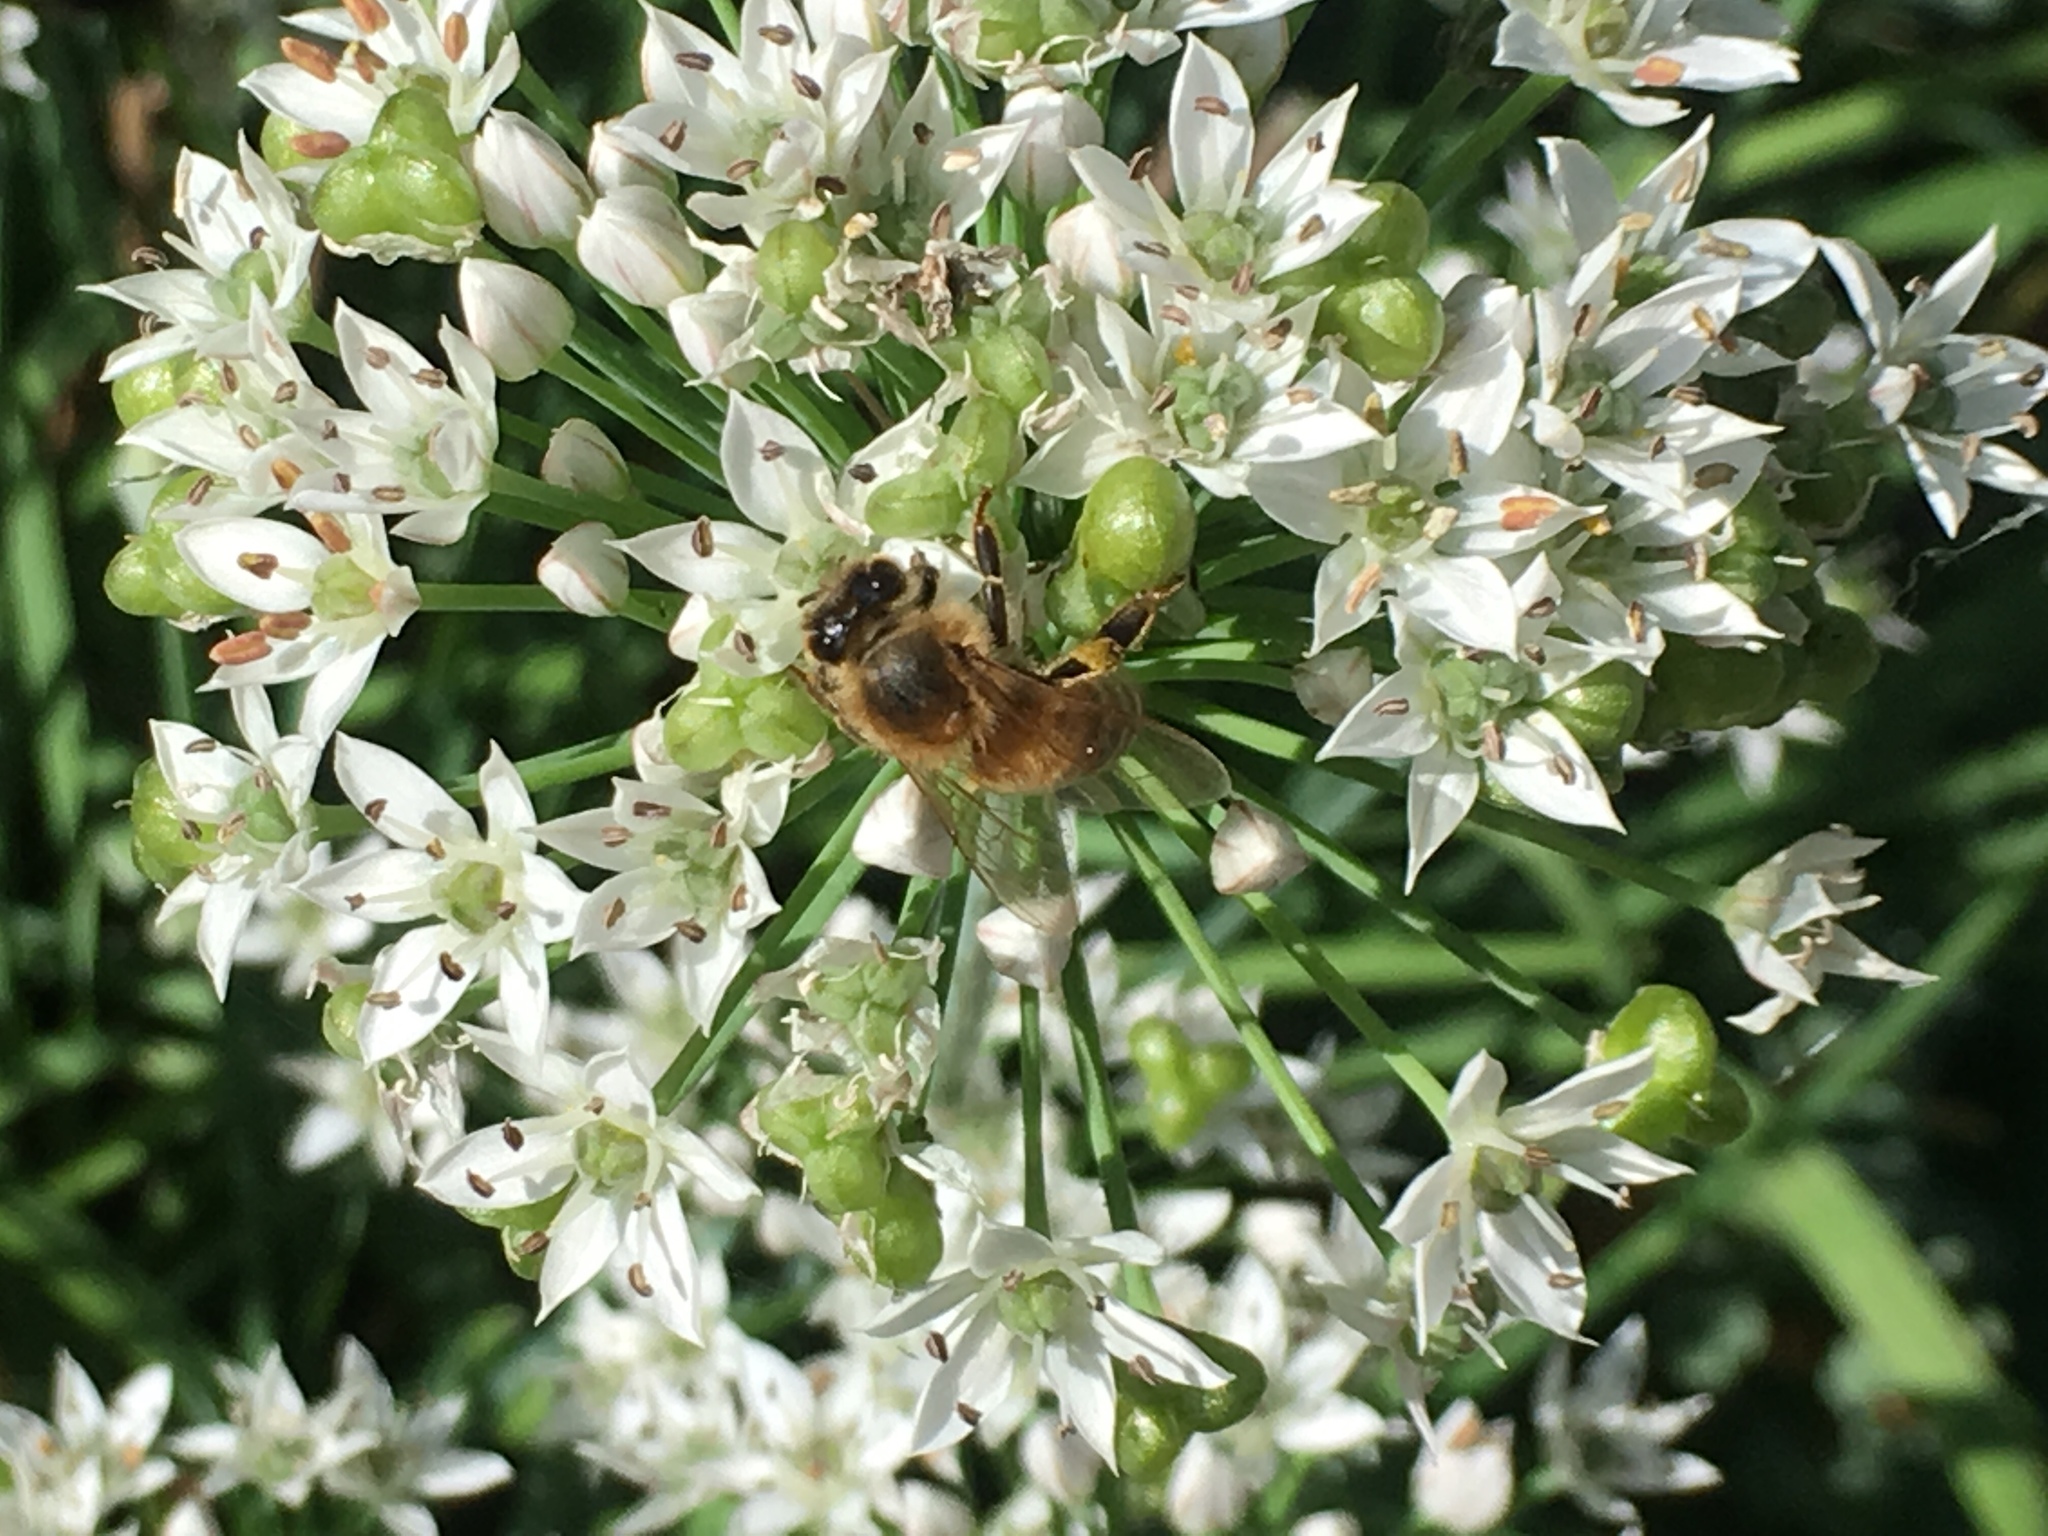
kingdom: Animalia
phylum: Arthropoda
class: Insecta
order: Hymenoptera
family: Apidae
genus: Apis
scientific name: Apis mellifera
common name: Honey bee
